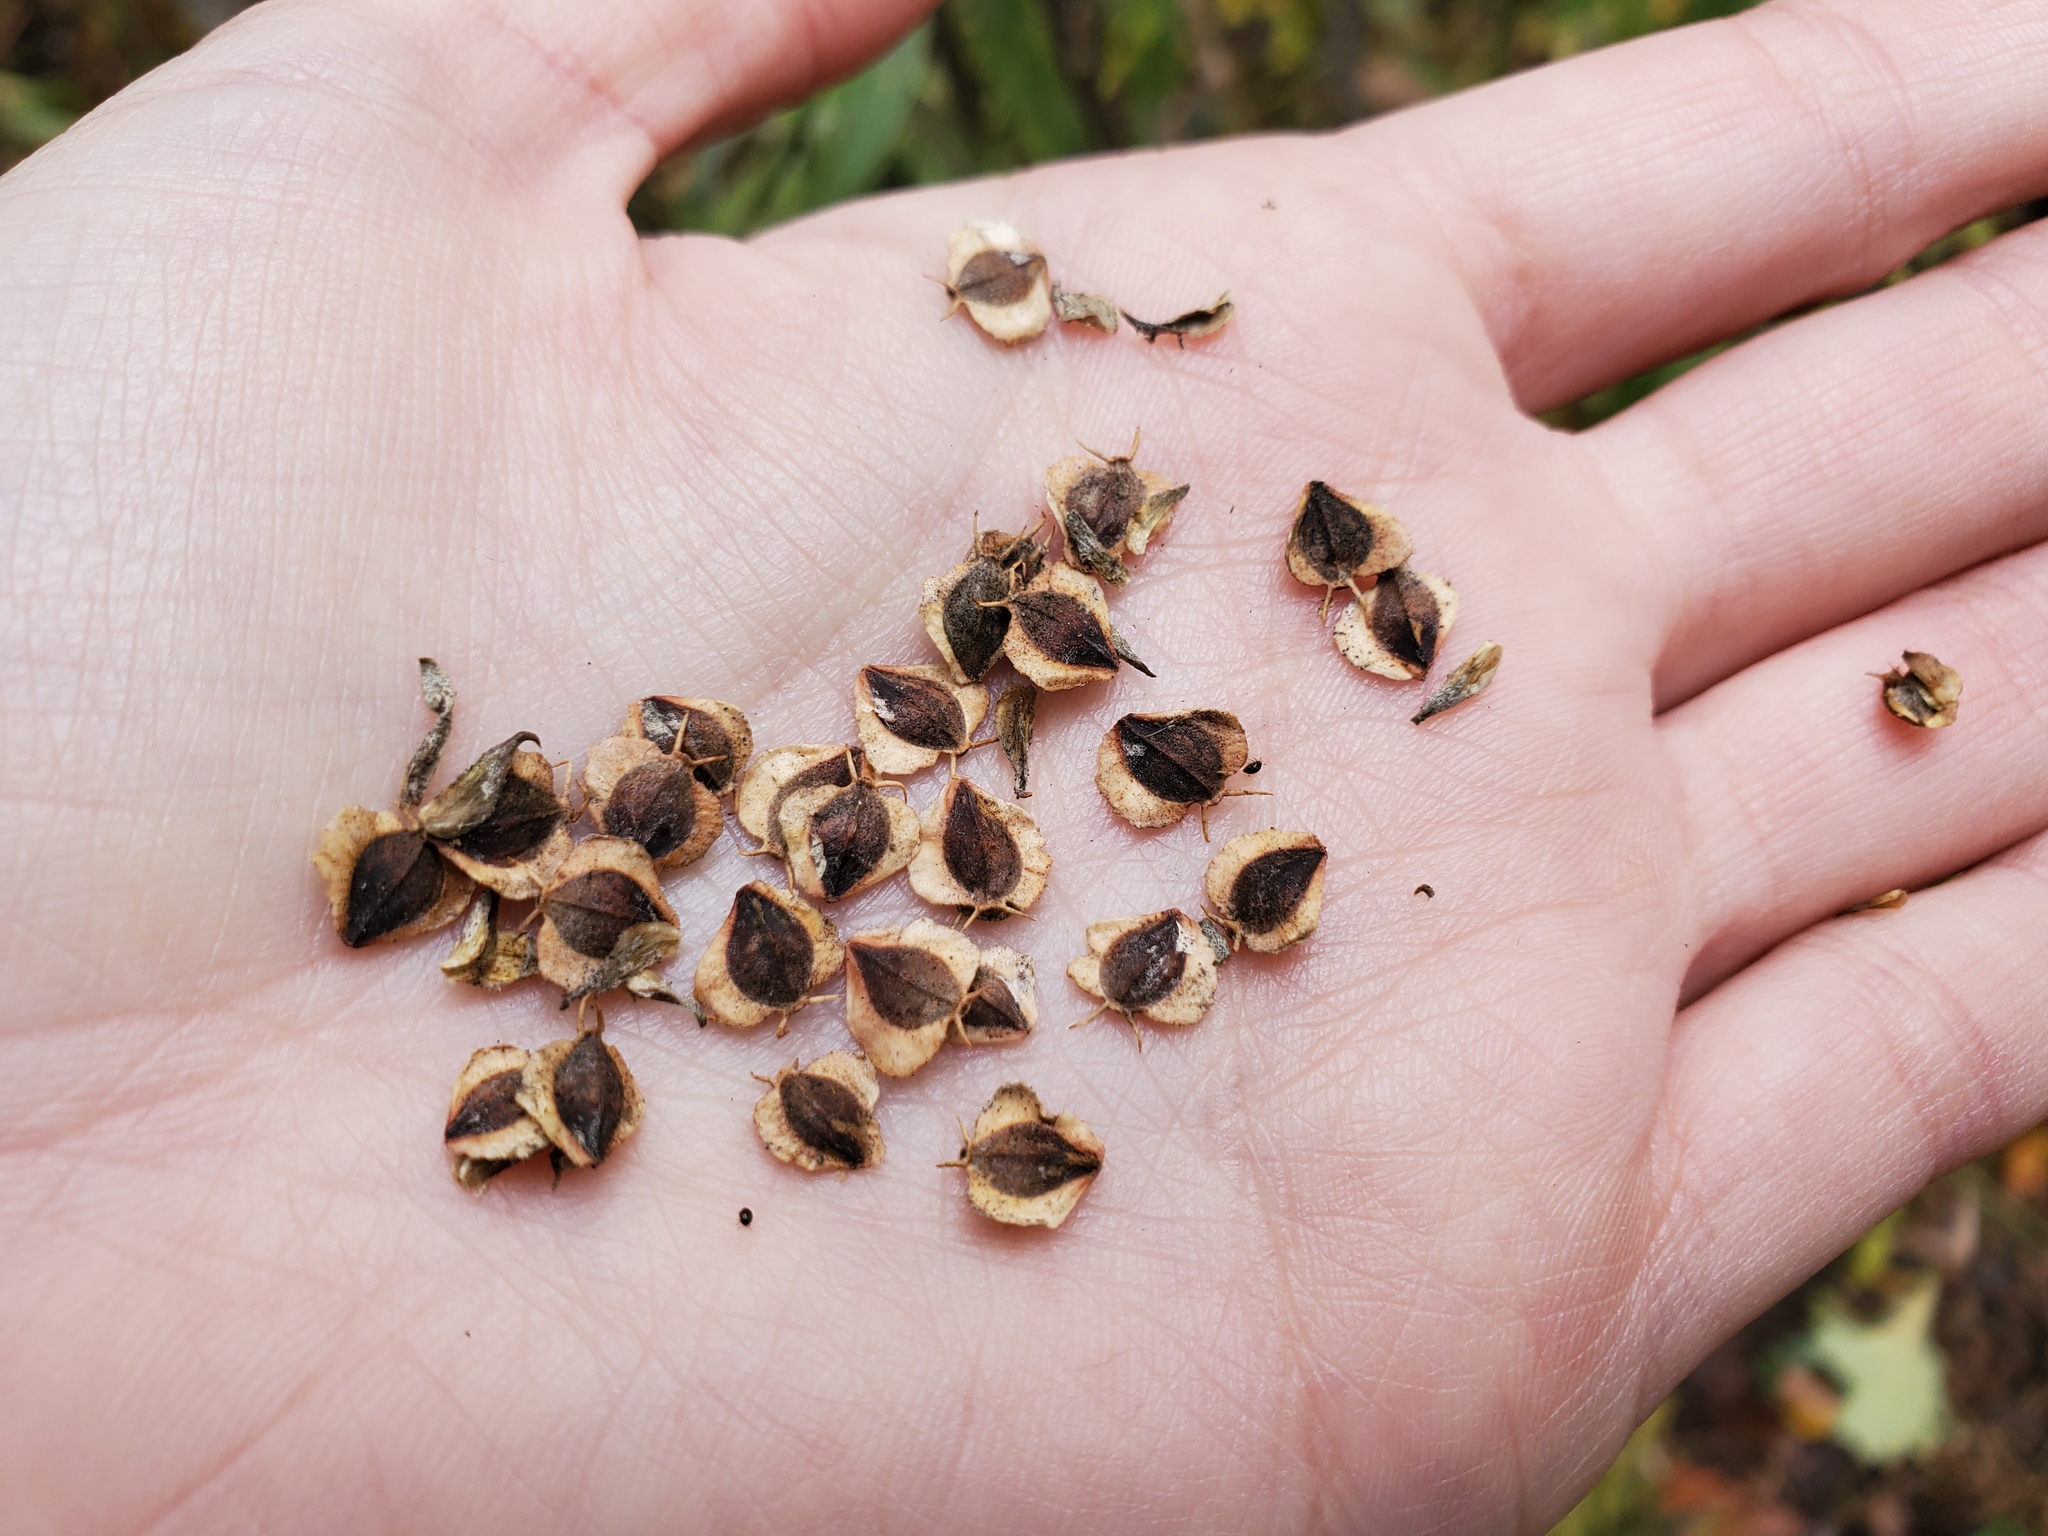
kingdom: Plantae
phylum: Tracheophyta
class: Magnoliopsida
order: Asterales
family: Asteraceae
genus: Verbesina
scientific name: Verbesina alternifolia
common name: Wingstem
